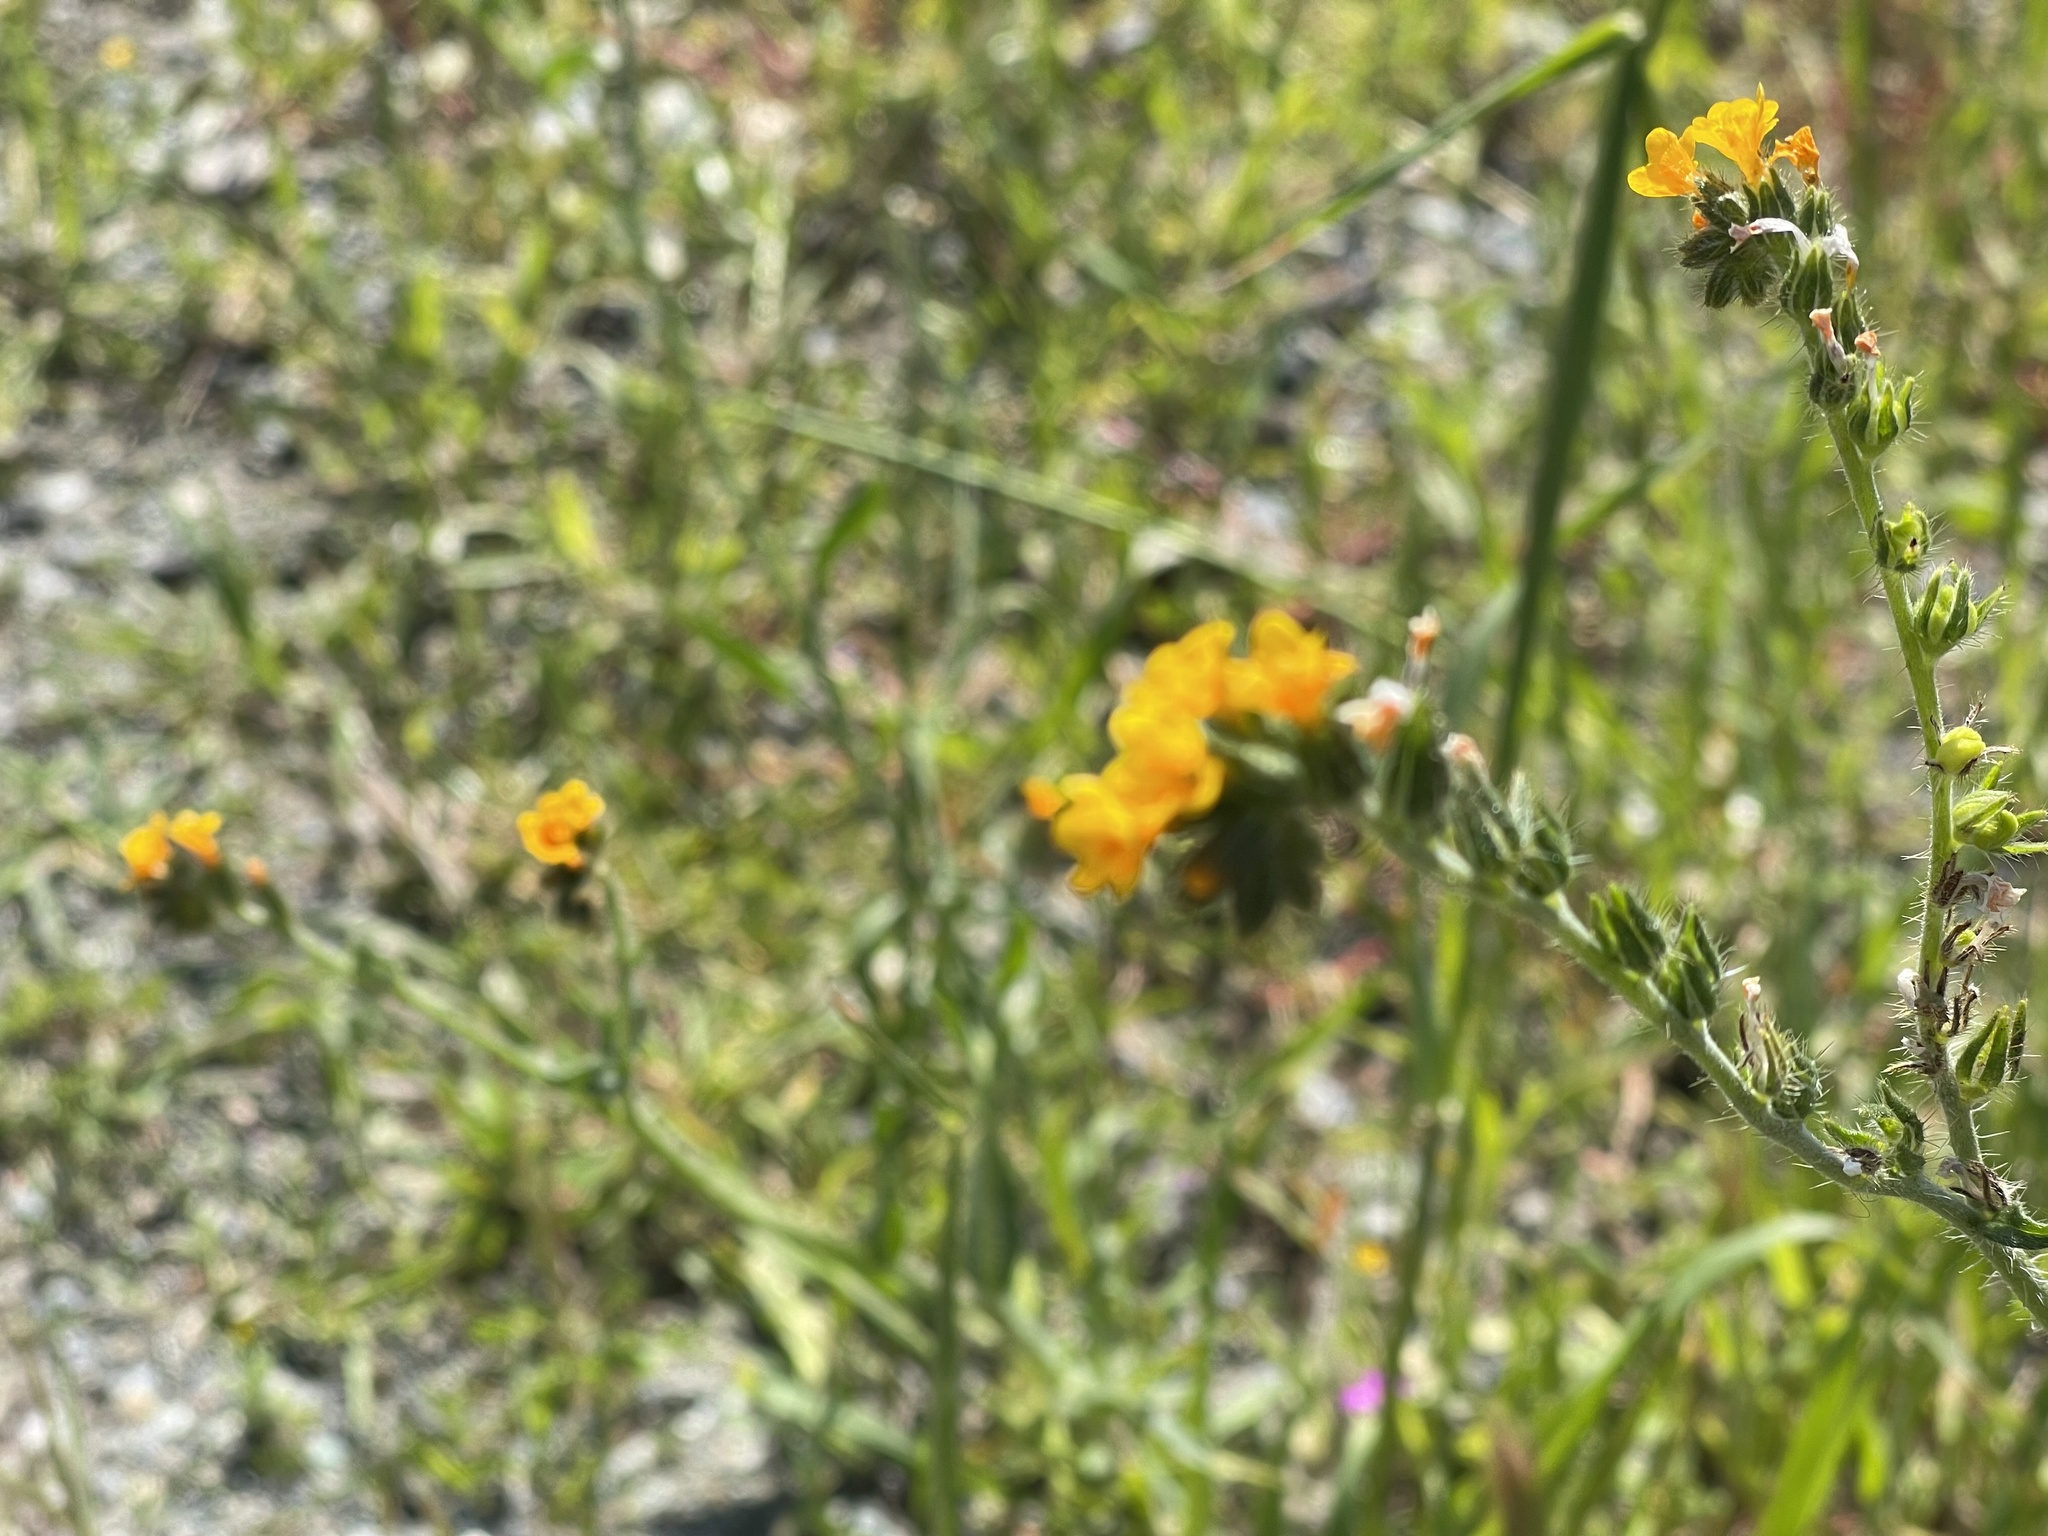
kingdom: Plantae
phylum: Tracheophyta
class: Magnoliopsida
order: Boraginales
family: Boraginaceae
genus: Amsinckia
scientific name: Amsinckia menziesii
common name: Menzies' fiddleneck
